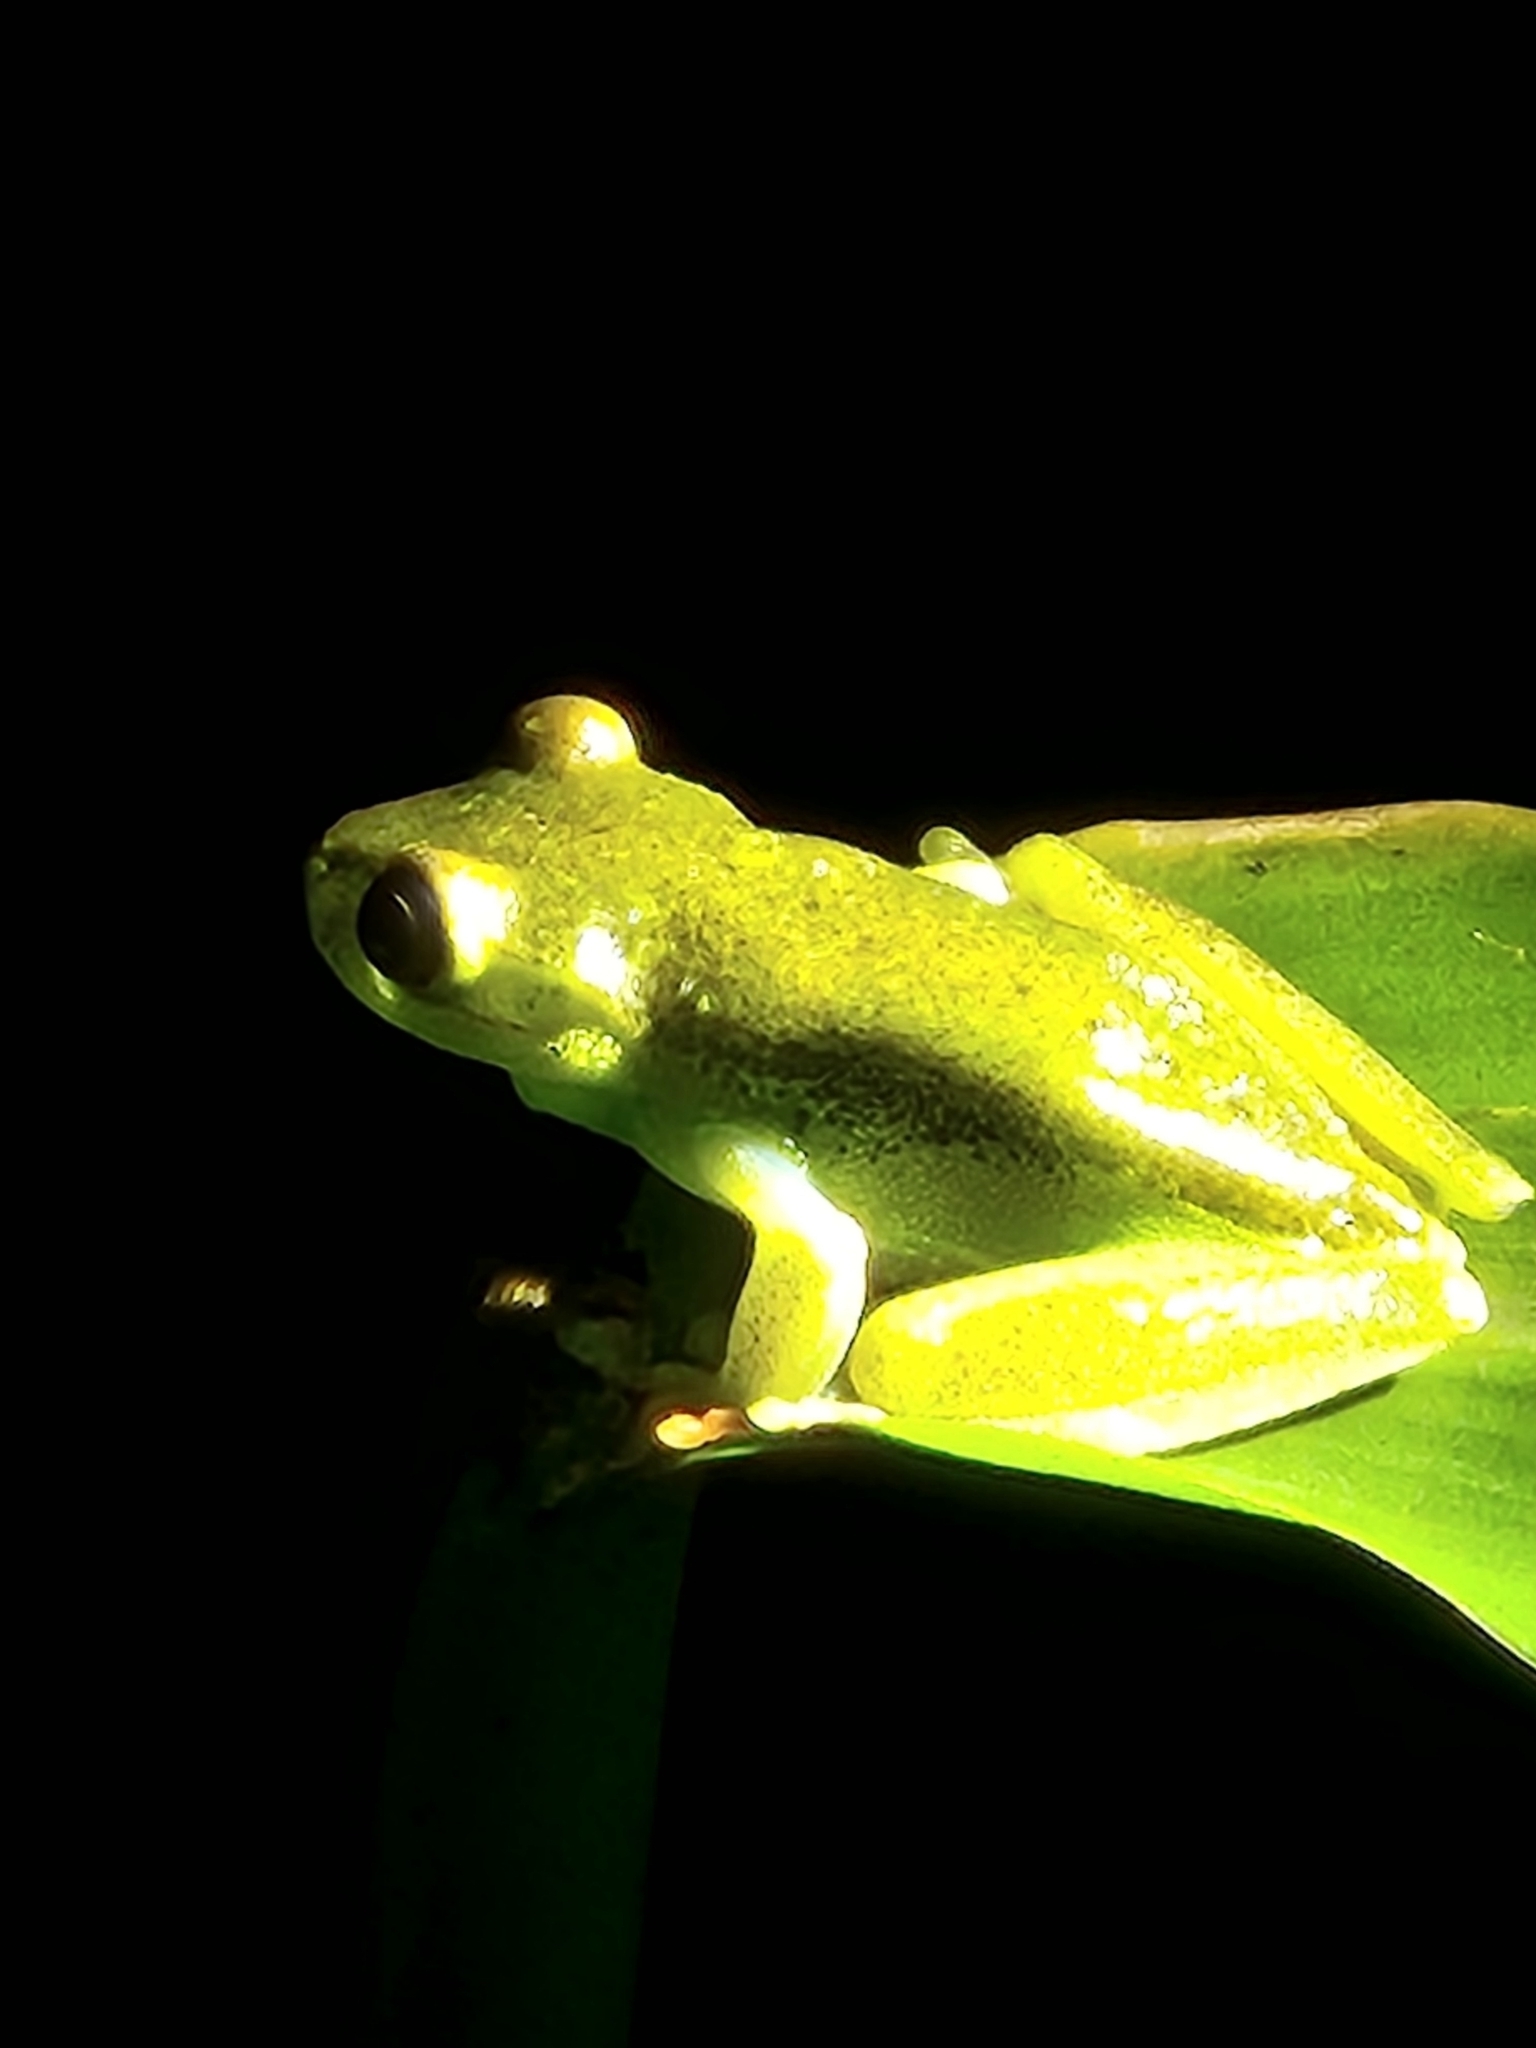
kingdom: Animalia
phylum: Chordata
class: Amphibia
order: Anura
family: Hylidae
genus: Boana
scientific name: Boana rufitela
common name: Canal zone treefrog
